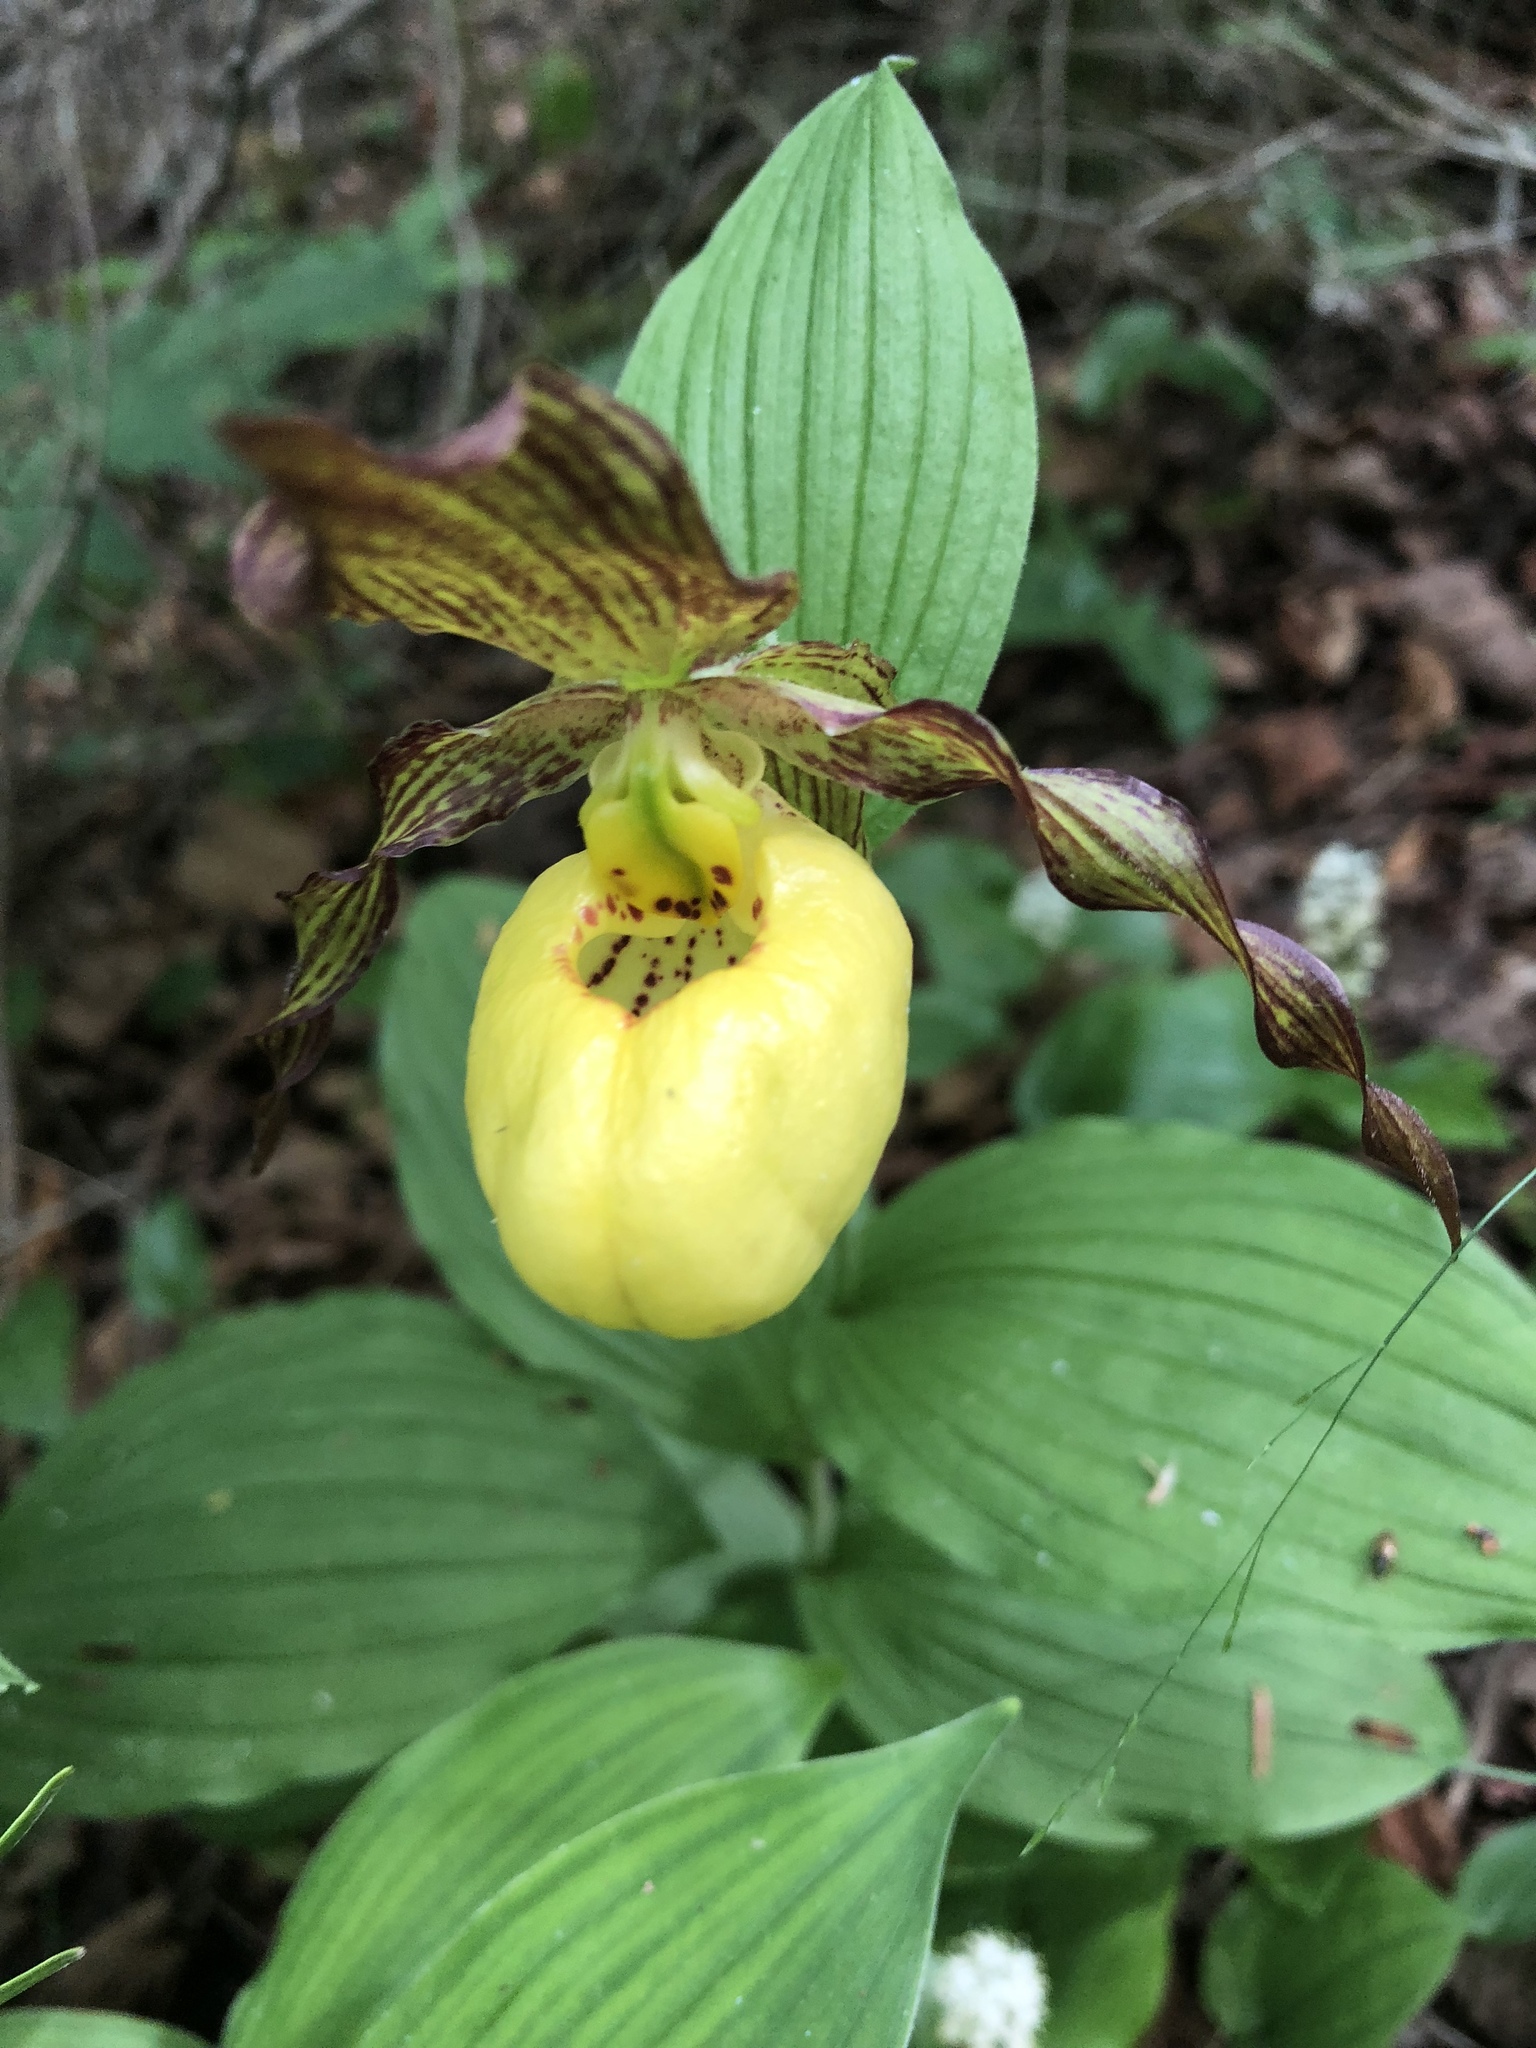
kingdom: Plantae
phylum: Tracheophyta
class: Liliopsida
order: Asparagales
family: Orchidaceae
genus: Cypripedium
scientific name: Cypripedium parviflorum
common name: American yellow lady's-slipper
